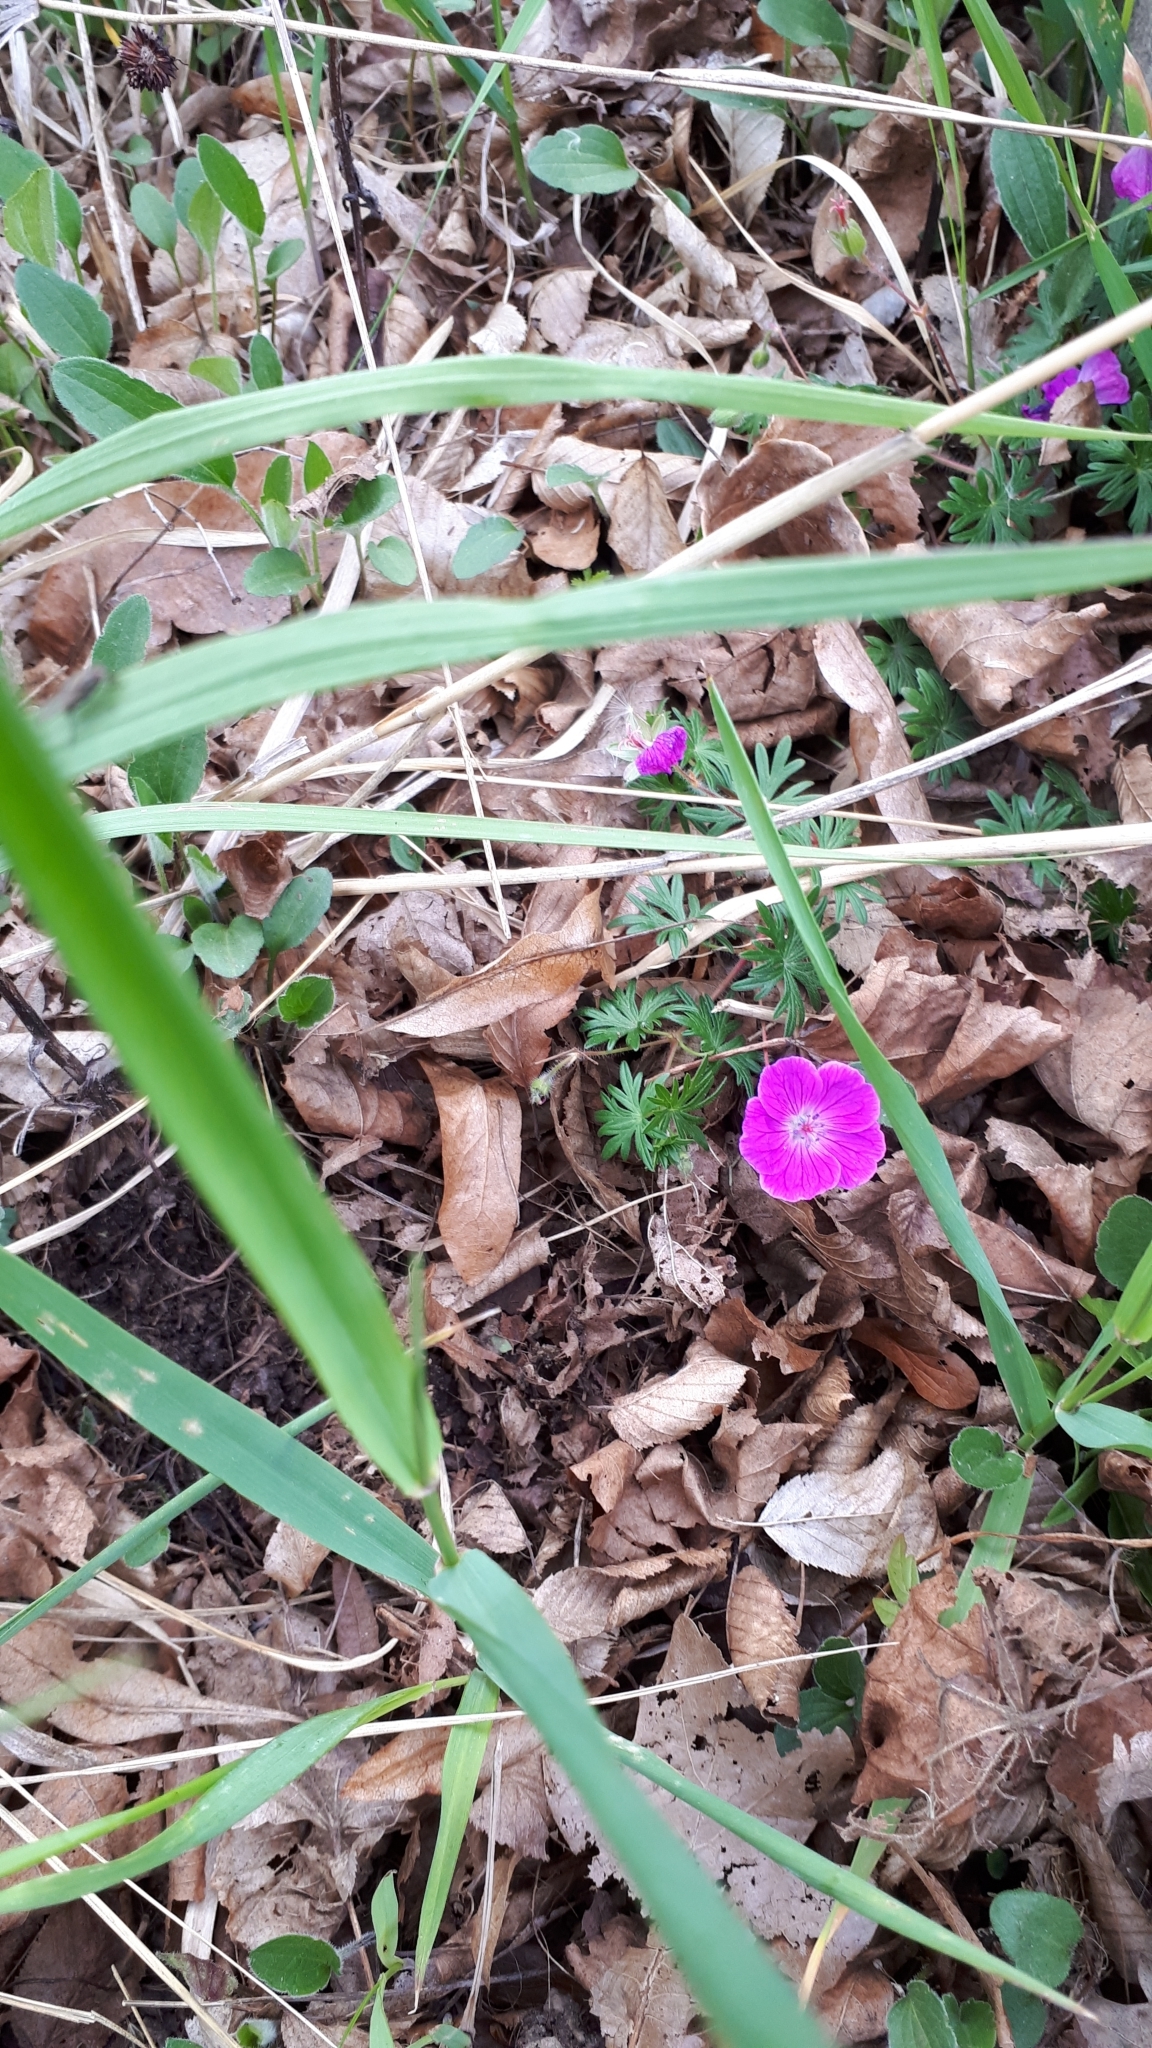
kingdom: Plantae
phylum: Tracheophyta
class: Magnoliopsida
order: Geraniales
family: Geraniaceae
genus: Geranium
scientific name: Geranium sanguineum
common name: Bloody crane's-bill
